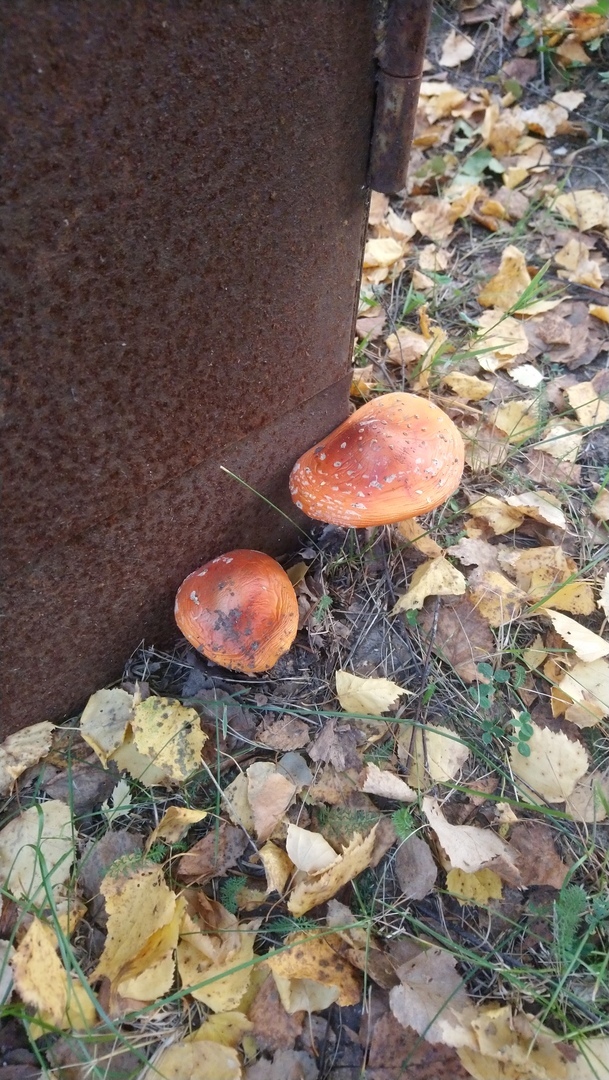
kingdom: Fungi
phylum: Basidiomycota
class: Agaricomycetes
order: Agaricales
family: Amanitaceae
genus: Amanita
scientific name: Amanita muscaria
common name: Fly agaric
